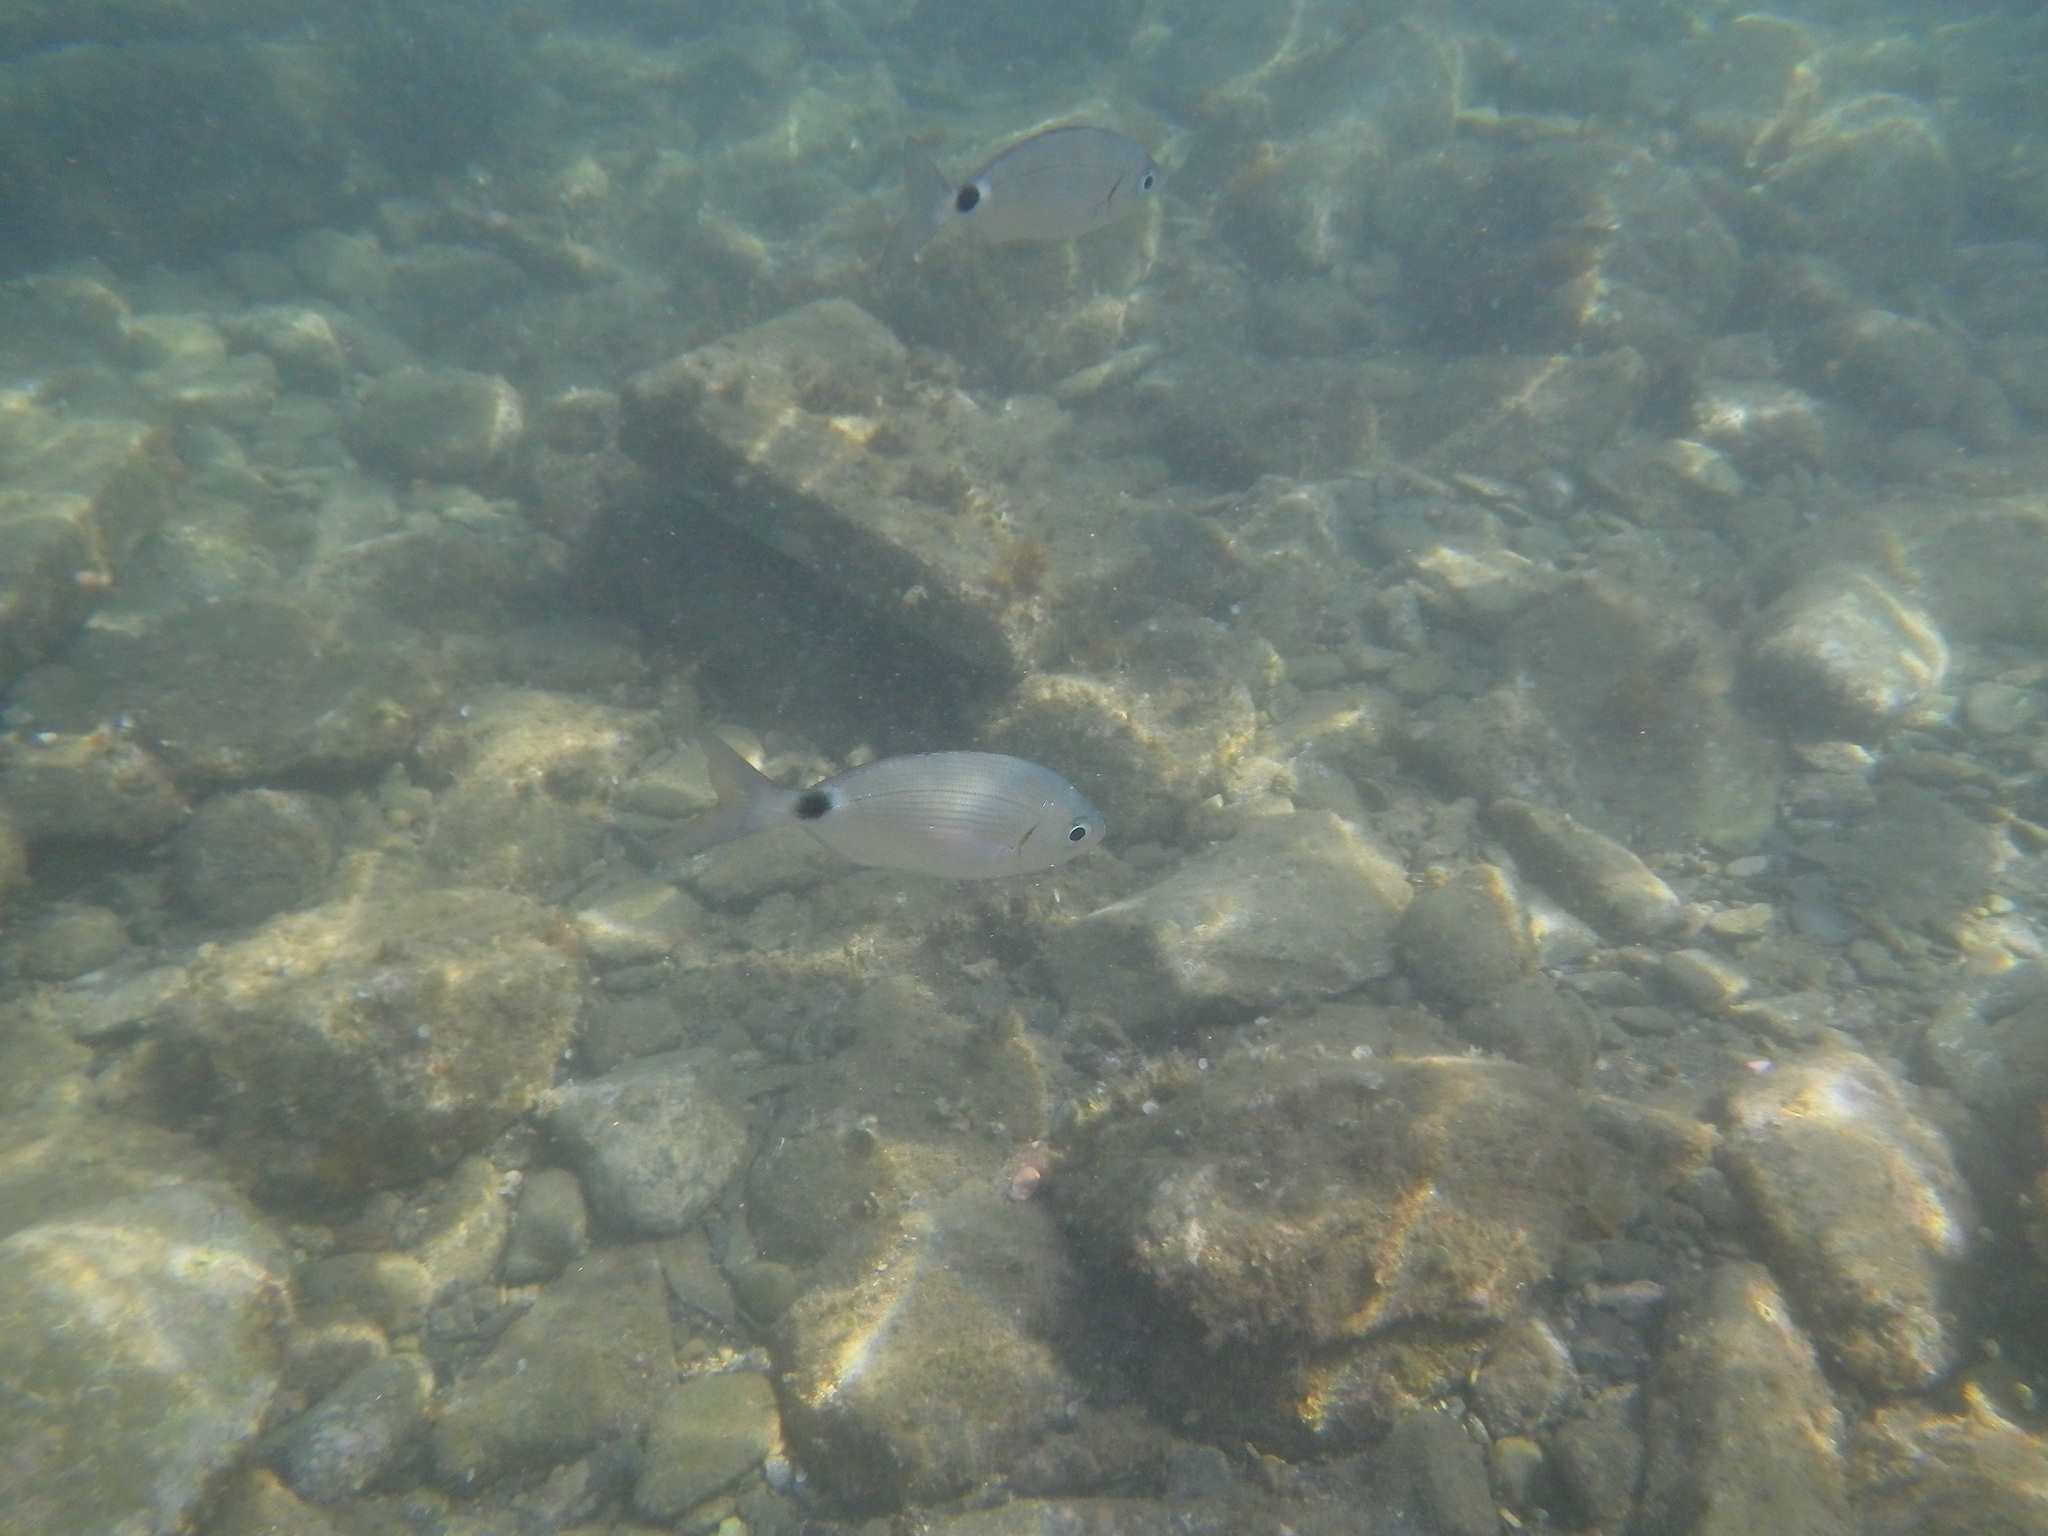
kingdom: Animalia
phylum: Chordata
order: Perciformes
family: Sparidae
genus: Oblada
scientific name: Oblada melanura
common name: Saddled seabream
